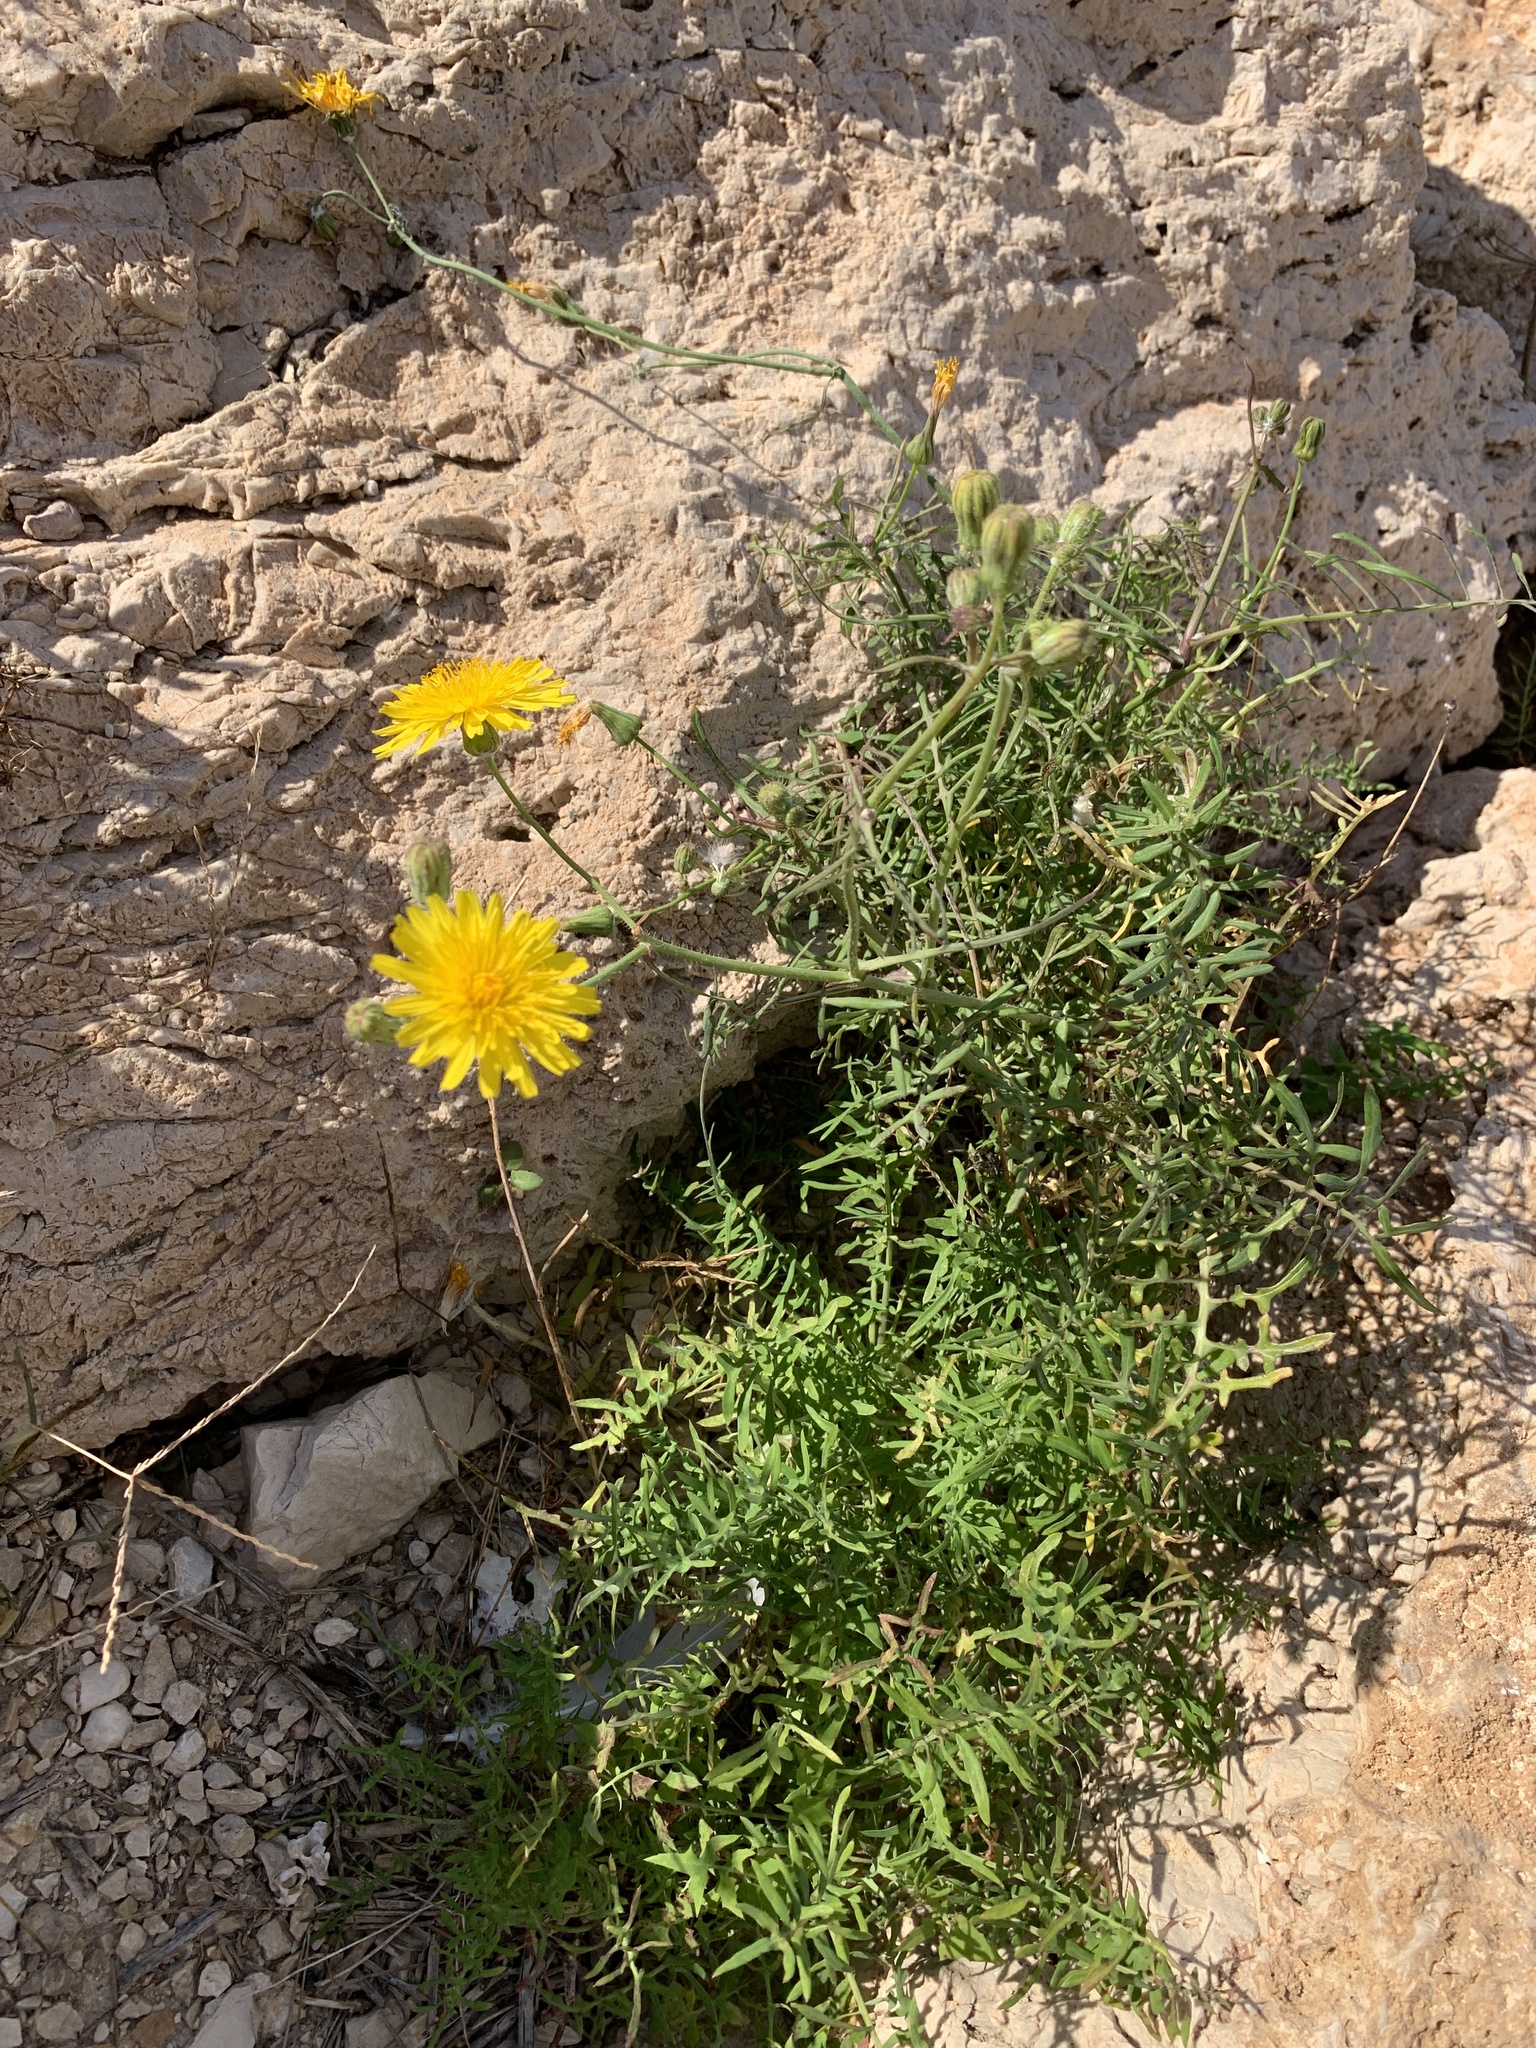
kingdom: Plantae
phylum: Tracheophyta
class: Magnoliopsida
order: Asterales
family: Asteraceae
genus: Sonchus
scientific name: Sonchus tenerrimus
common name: Clammy sowthistle
